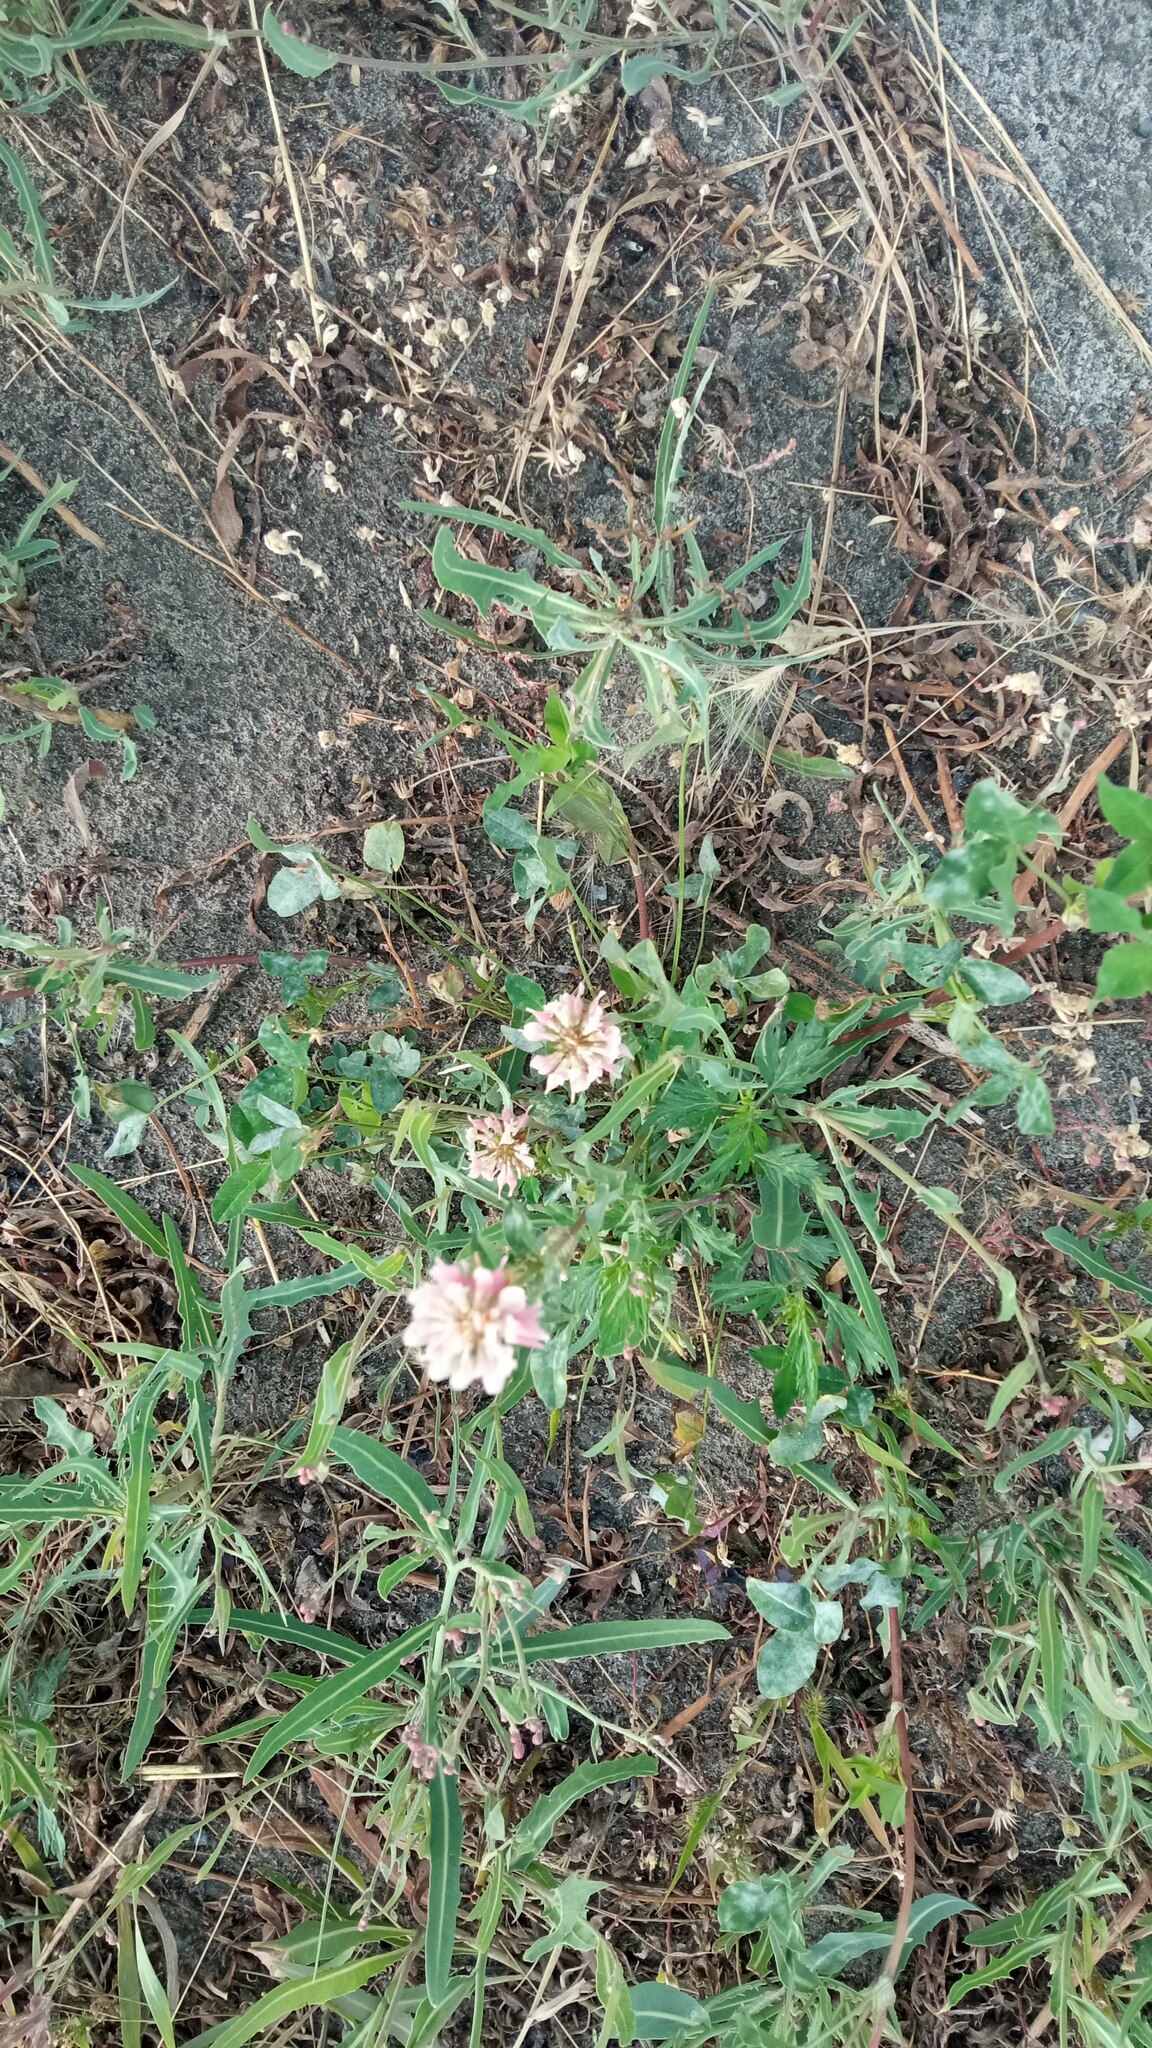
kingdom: Plantae
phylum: Tracheophyta
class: Magnoliopsida
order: Fabales
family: Fabaceae
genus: Trifolium
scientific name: Trifolium hybridum
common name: Alsike clover
